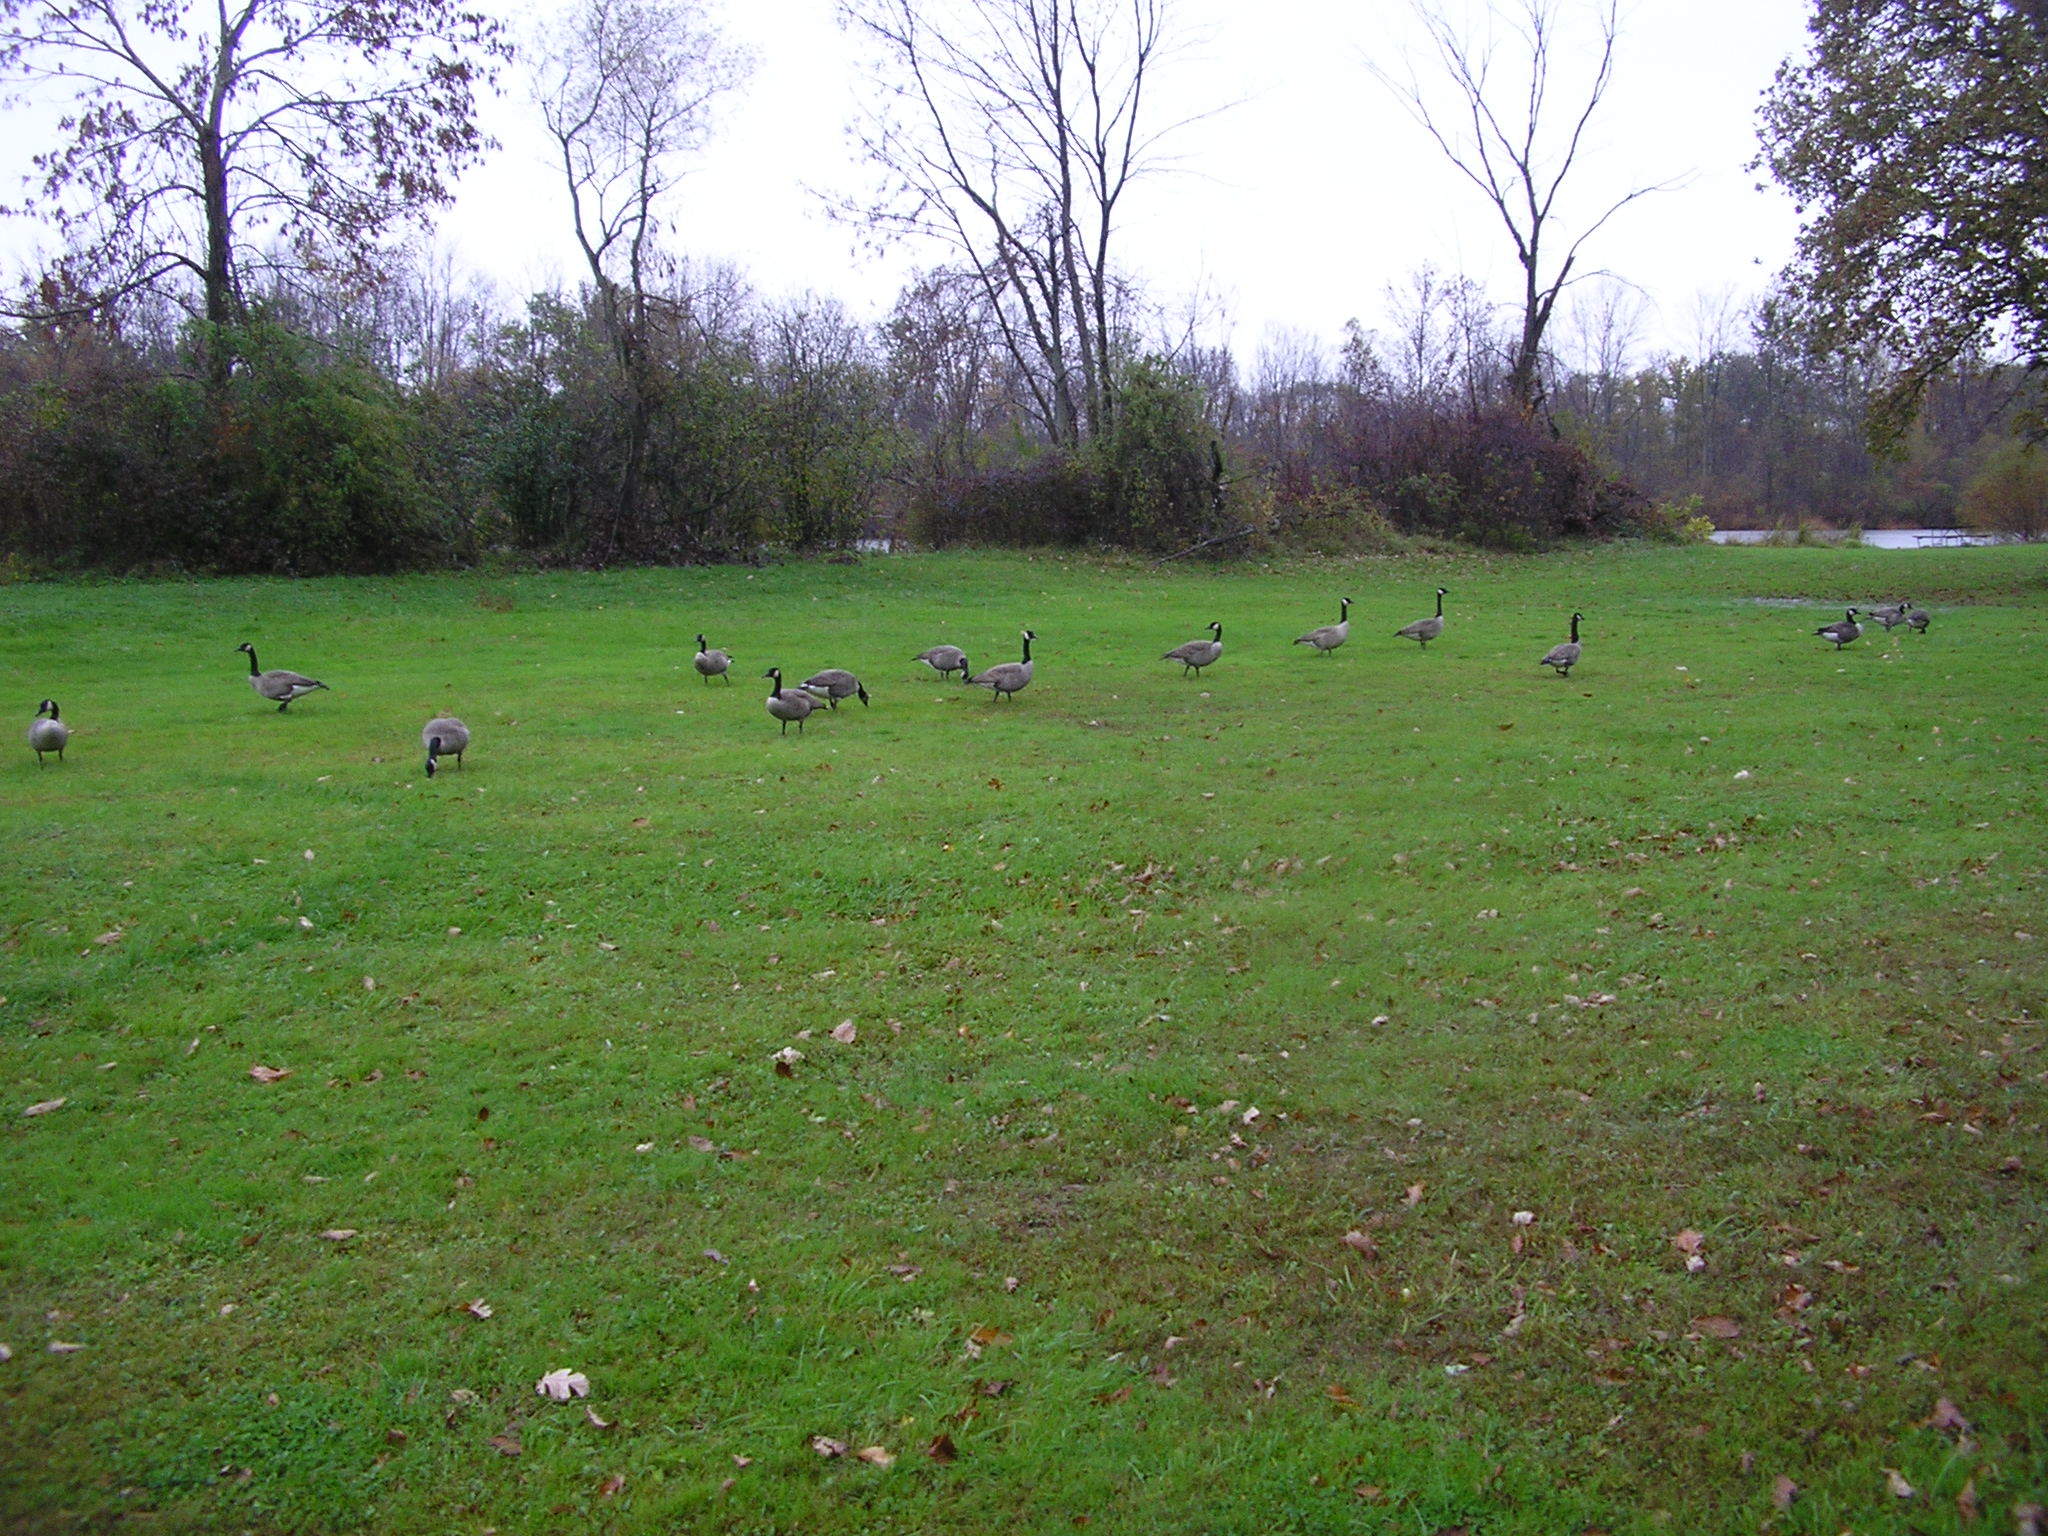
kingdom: Animalia
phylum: Chordata
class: Aves
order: Anseriformes
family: Anatidae
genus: Branta
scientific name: Branta canadensis
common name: Canada goose
